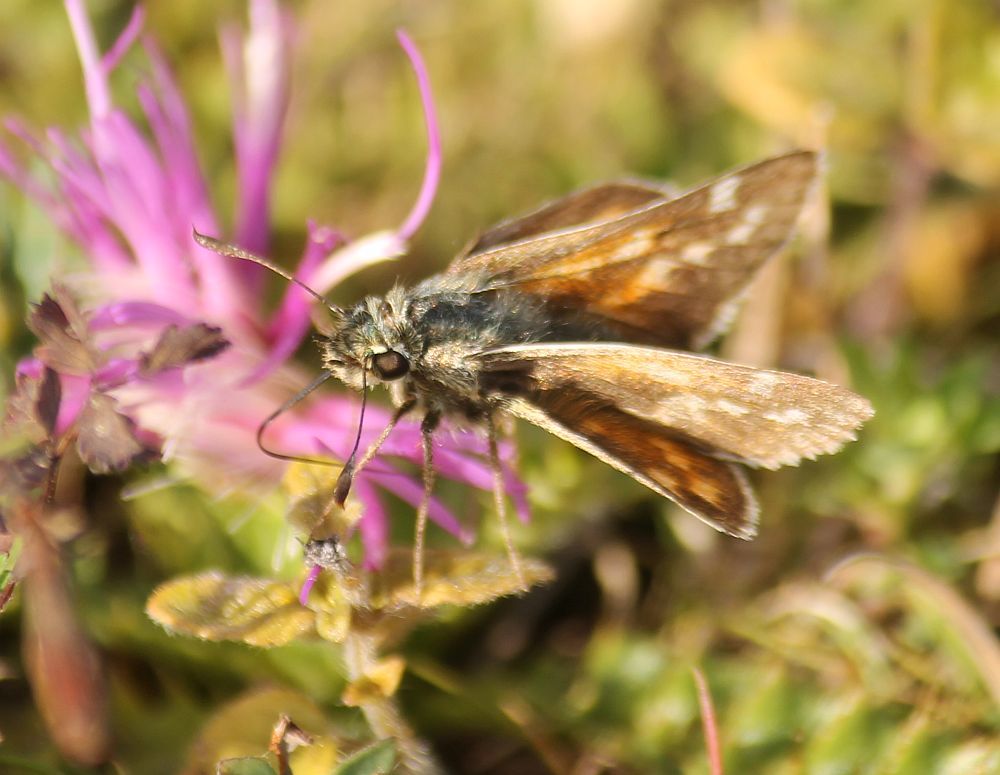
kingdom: Animalia
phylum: Arthropoda
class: Insecta
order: Lepidoptera
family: Hesperiidae
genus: Hesperia
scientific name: Hesperia comma
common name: Common branded skipper
